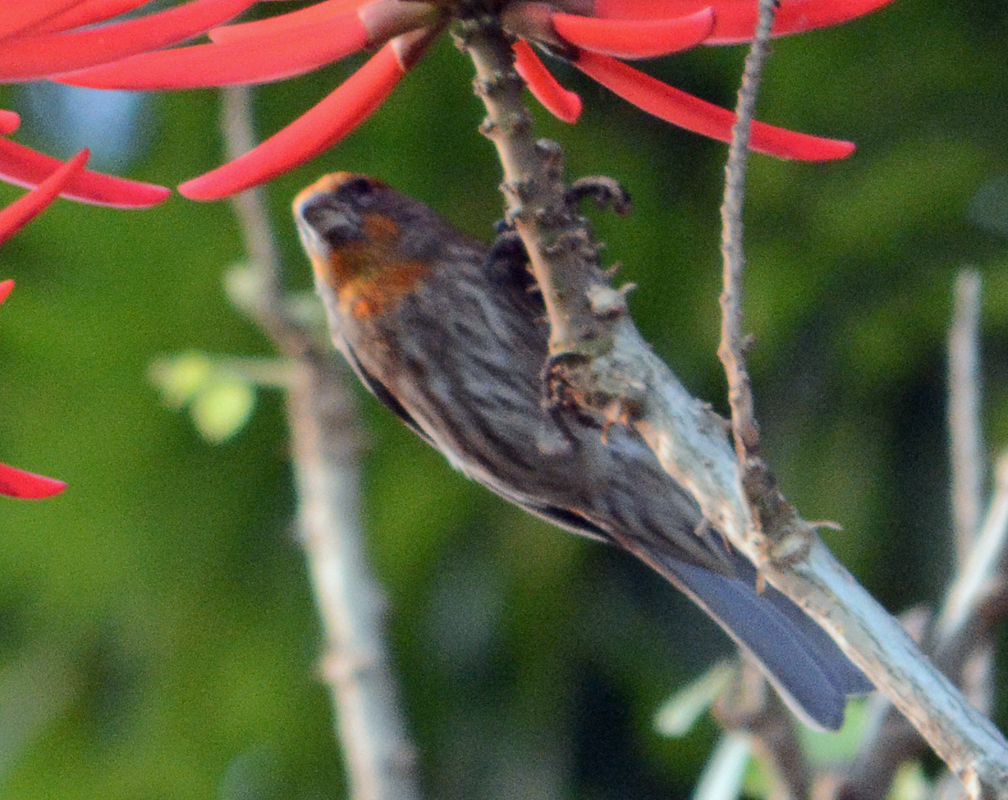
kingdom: Animalia
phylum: Chordata
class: Aves
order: Passeriformes
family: Fringillidae
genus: Haemorhous
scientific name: Haemorhous mexicanus
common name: House finch
